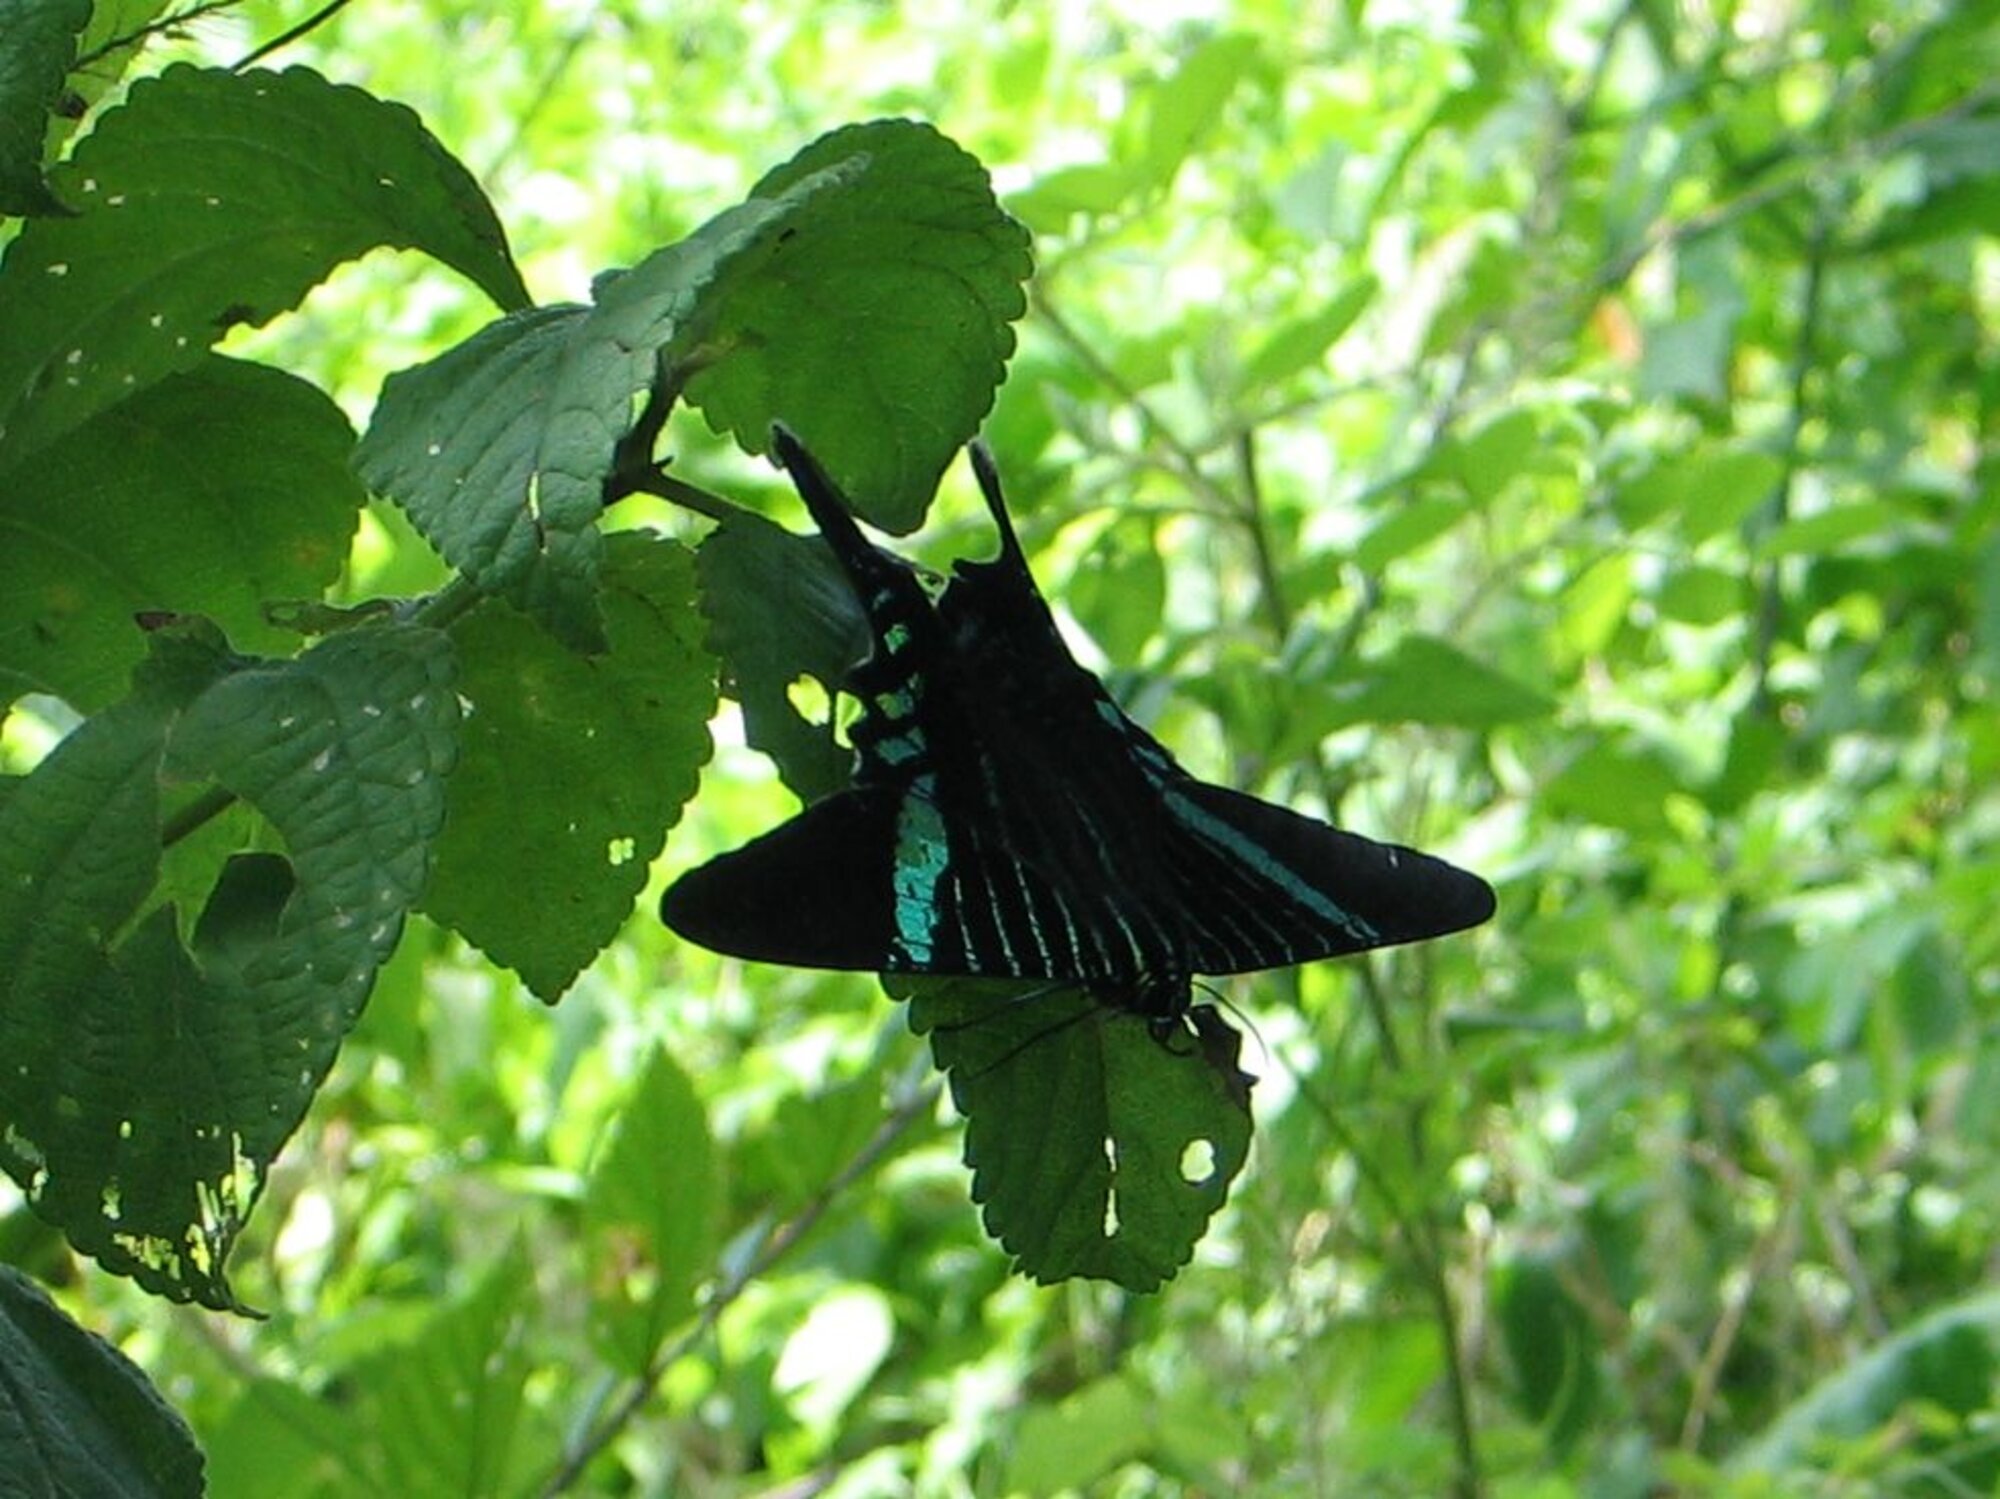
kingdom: Animalia
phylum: Arthropoda
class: Insecta
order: Lepidoptera
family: Uraniidae
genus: Urania
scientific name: Urania fulgens
